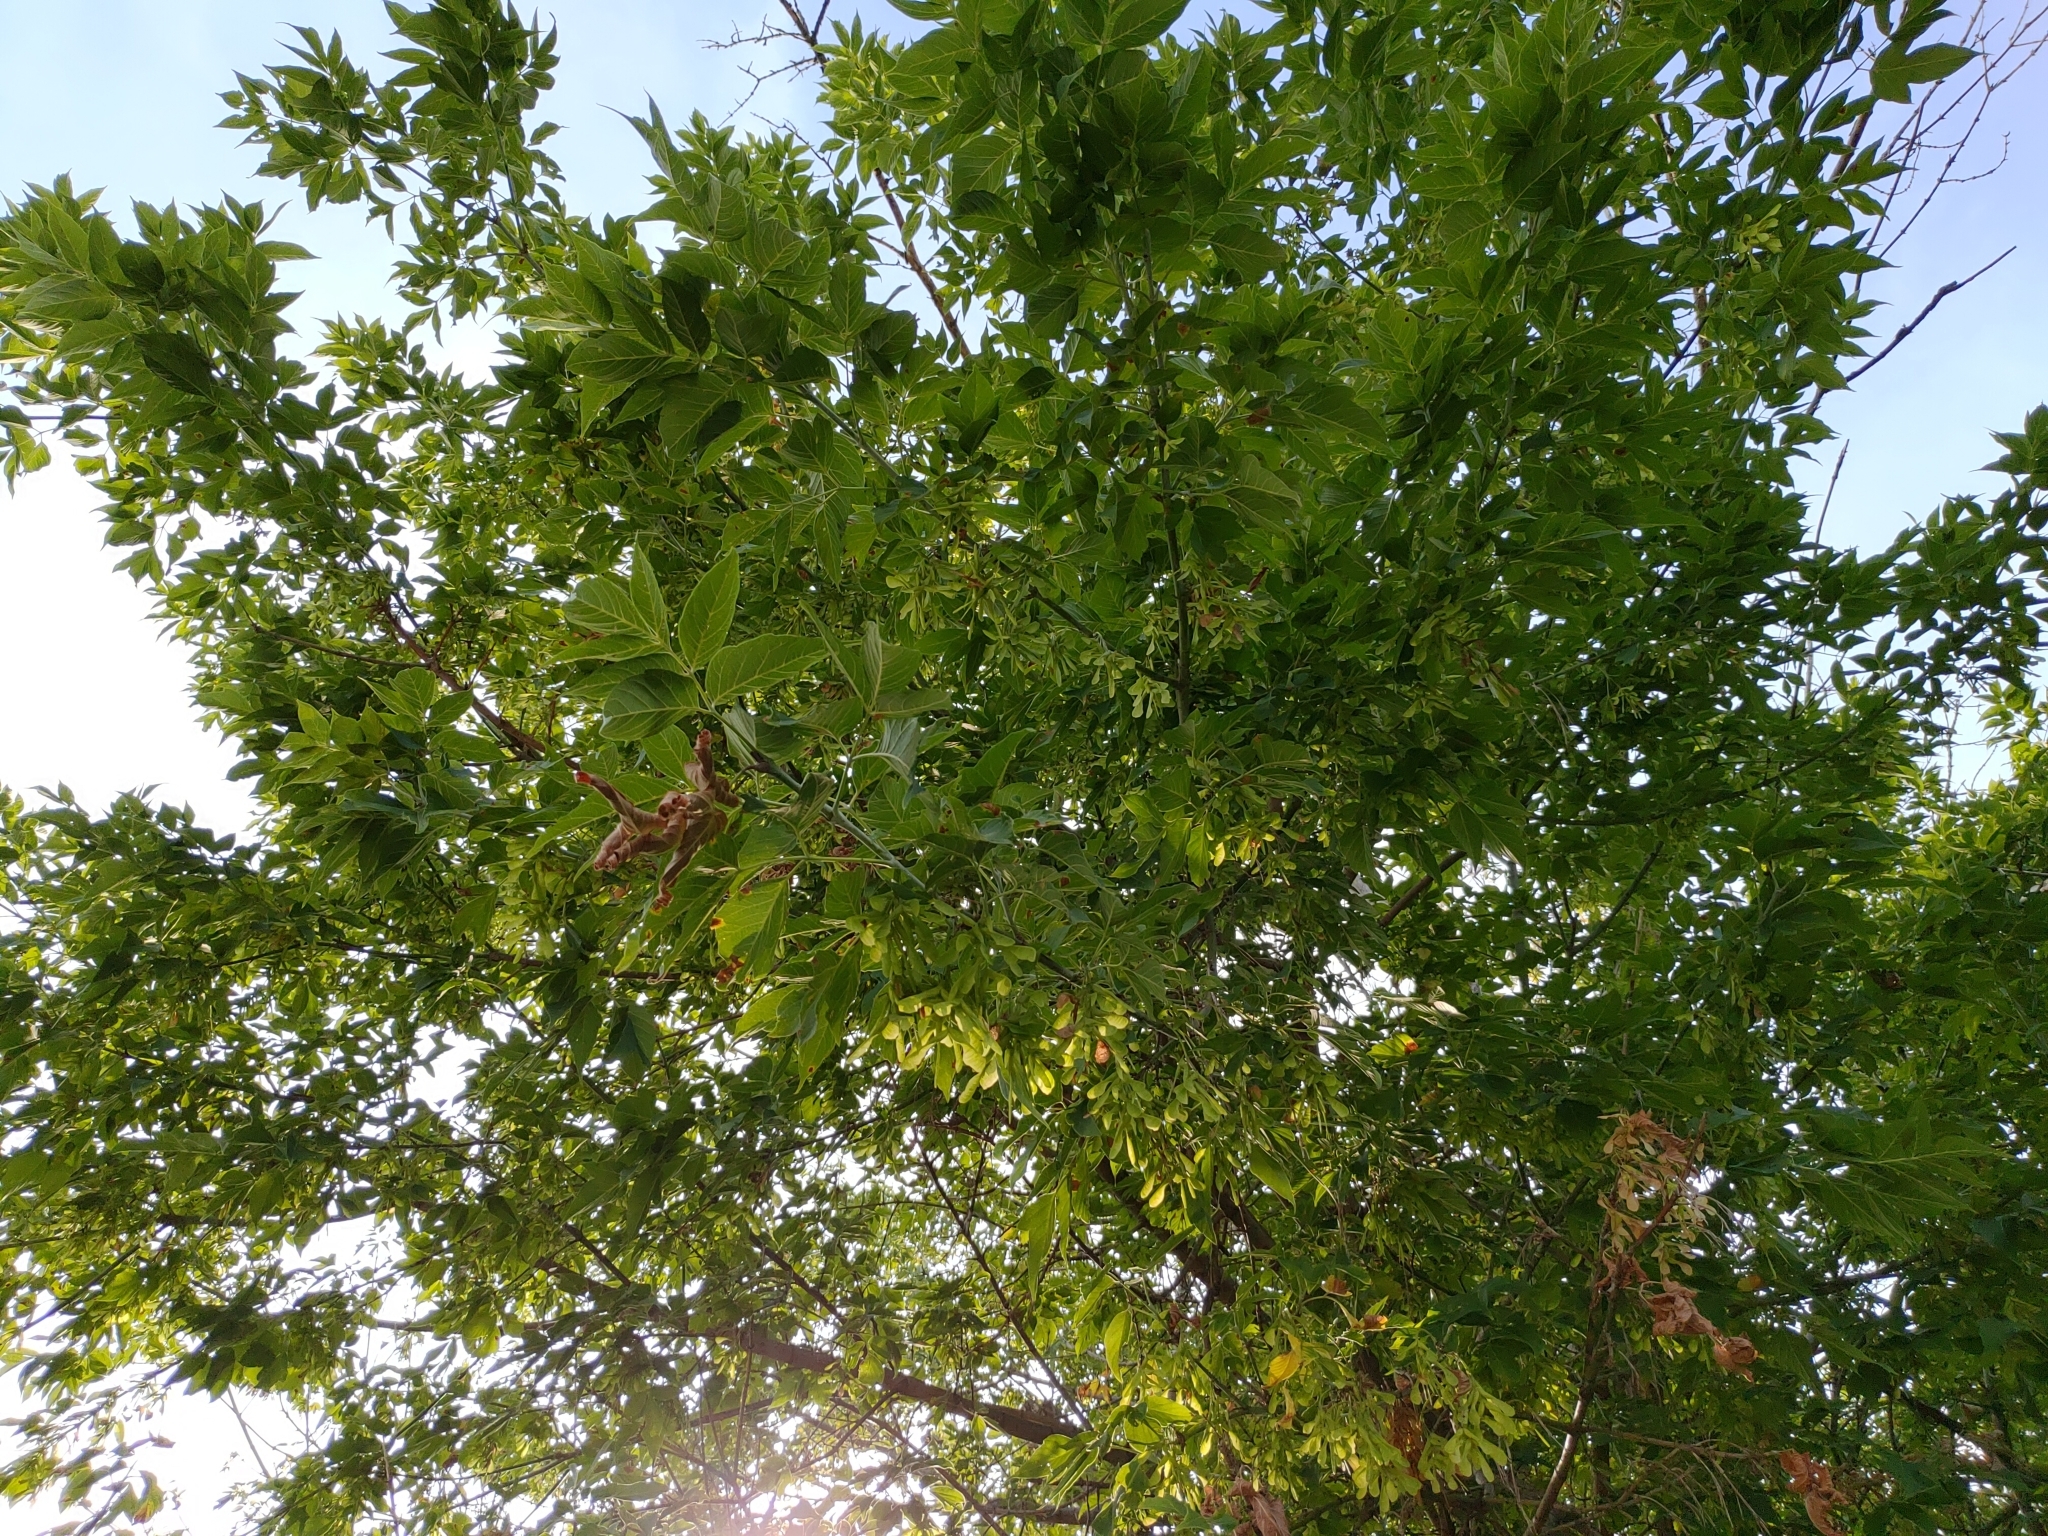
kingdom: Plantae
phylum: Tracheophyta
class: Magnoliopsida
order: Sapindales
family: Sapindaceae
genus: Acer
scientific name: Acer negundo
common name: Ashleaf maple
